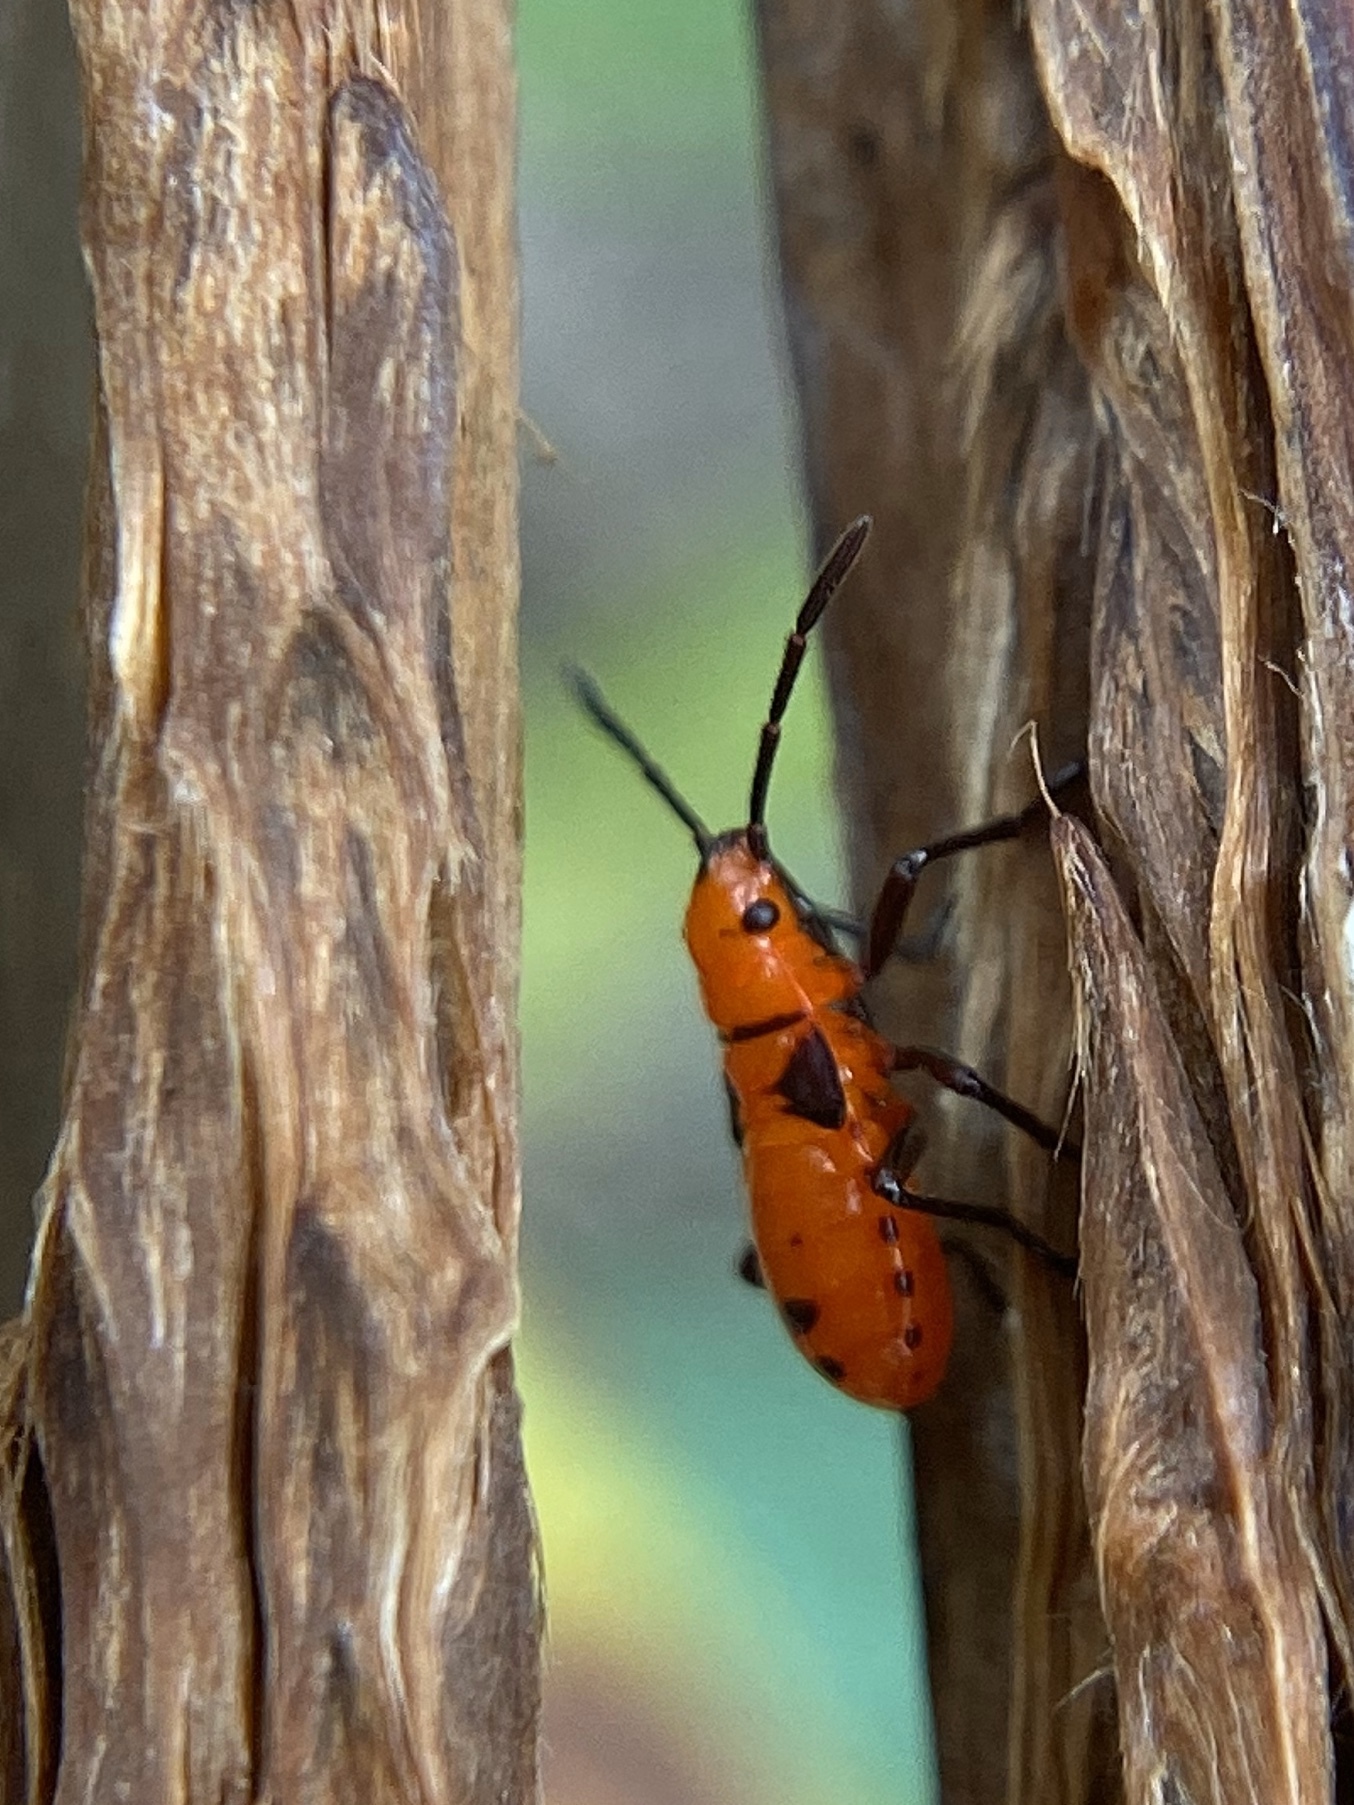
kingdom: Animalia
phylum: Arthropoda
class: Insecta
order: Hemiptera
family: Lygaeidae
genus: Oncopeltus
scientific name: Oncopeltus aulicus
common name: Lygaeid bug
